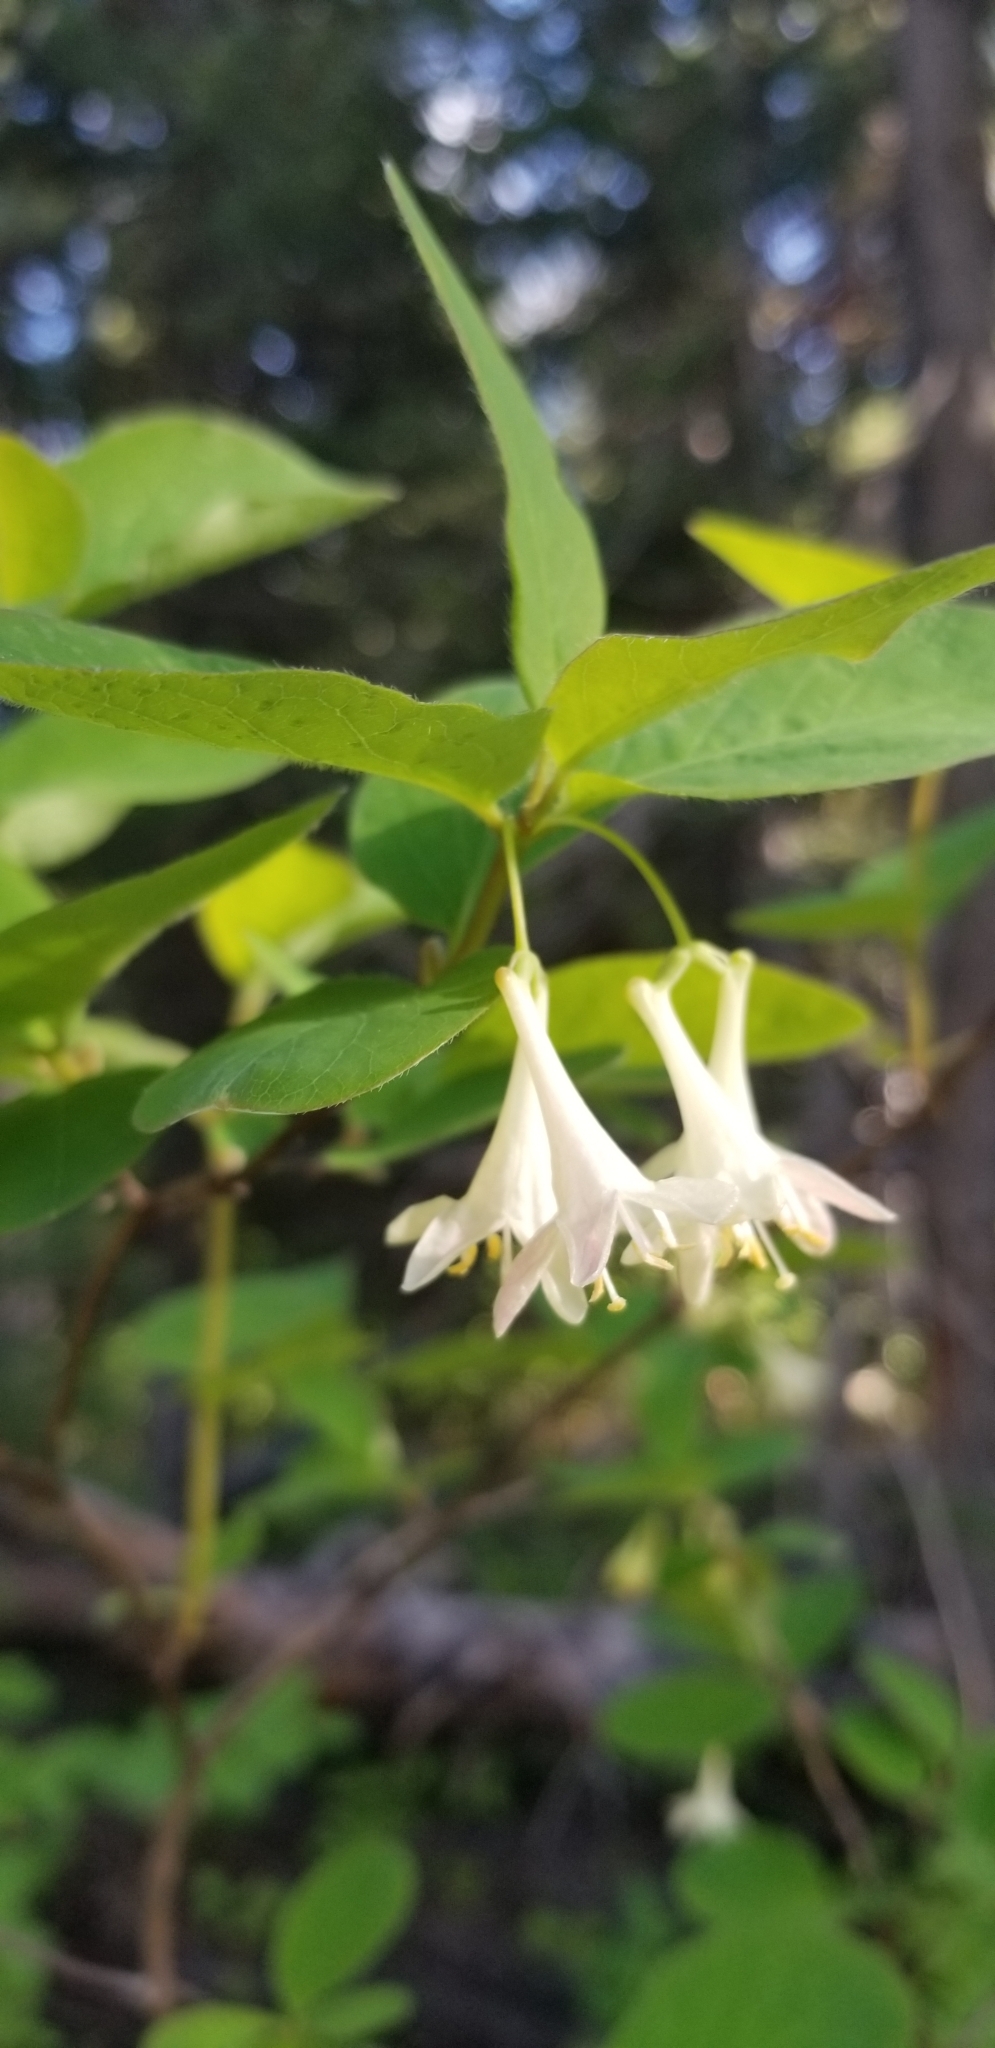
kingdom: Plantae
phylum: Tracheophyta
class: Magnoliopsida
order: Dipsacales
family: Caprifoliaceae
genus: Lonicera
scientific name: Lonicera utahensis
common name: Utah honeysuckle
